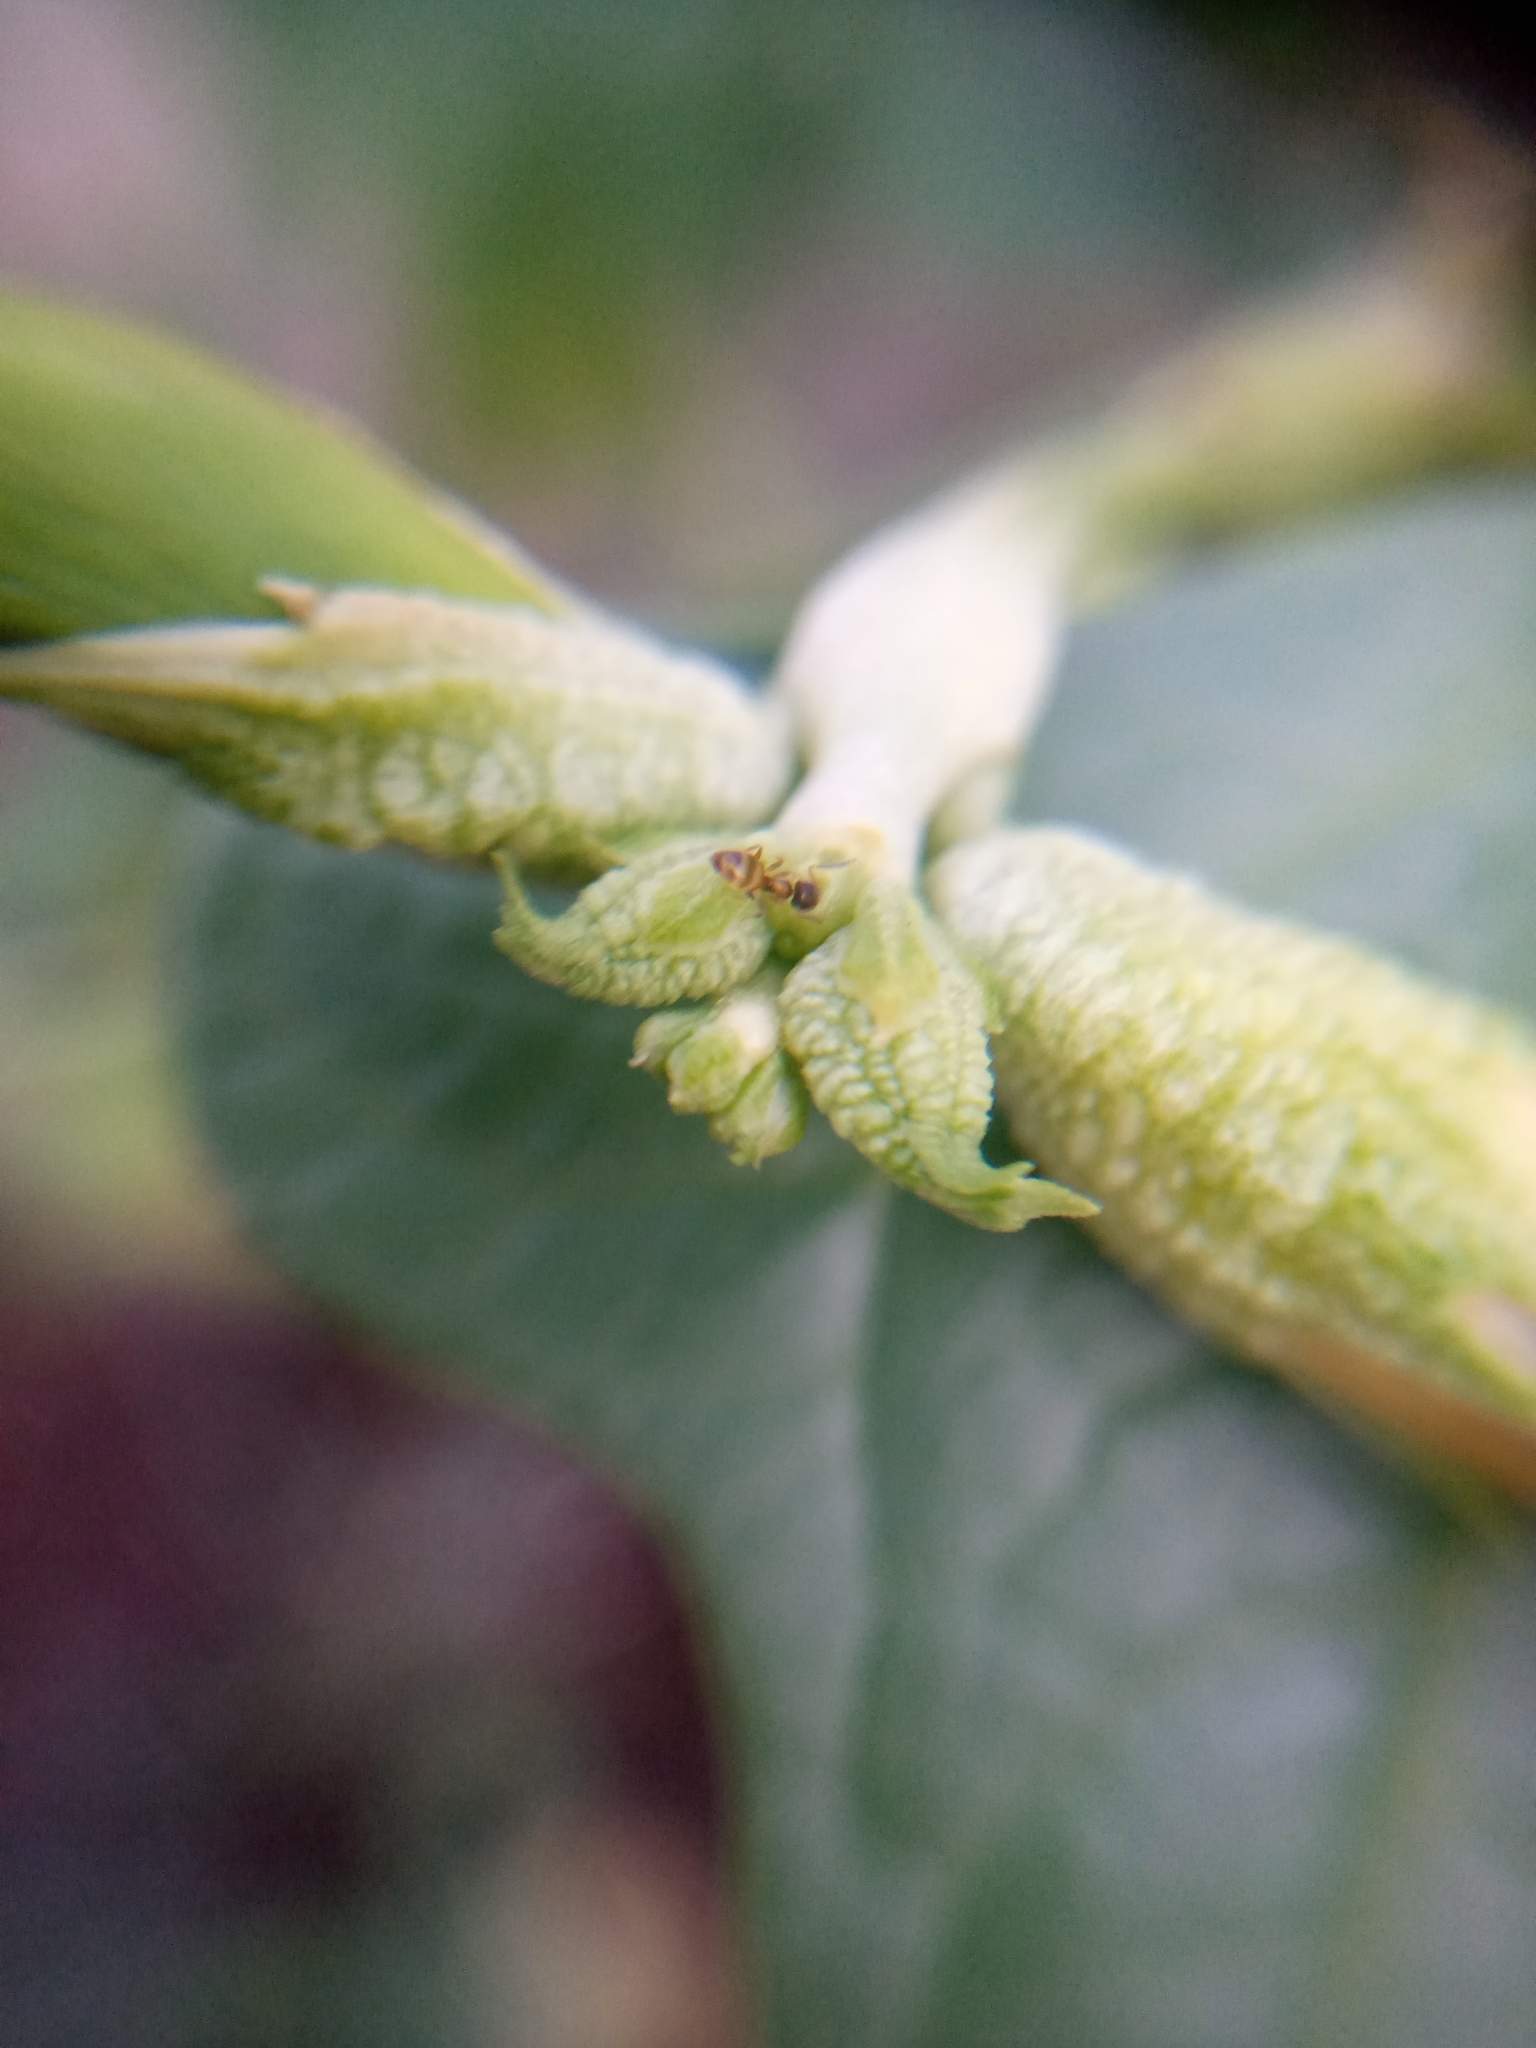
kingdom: Animalia
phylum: Arthropoda
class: Insecta
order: Hymenoptera
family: Formicidae
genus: Tapinoma
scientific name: Tapinoma melanocephalum
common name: Ghost ant
